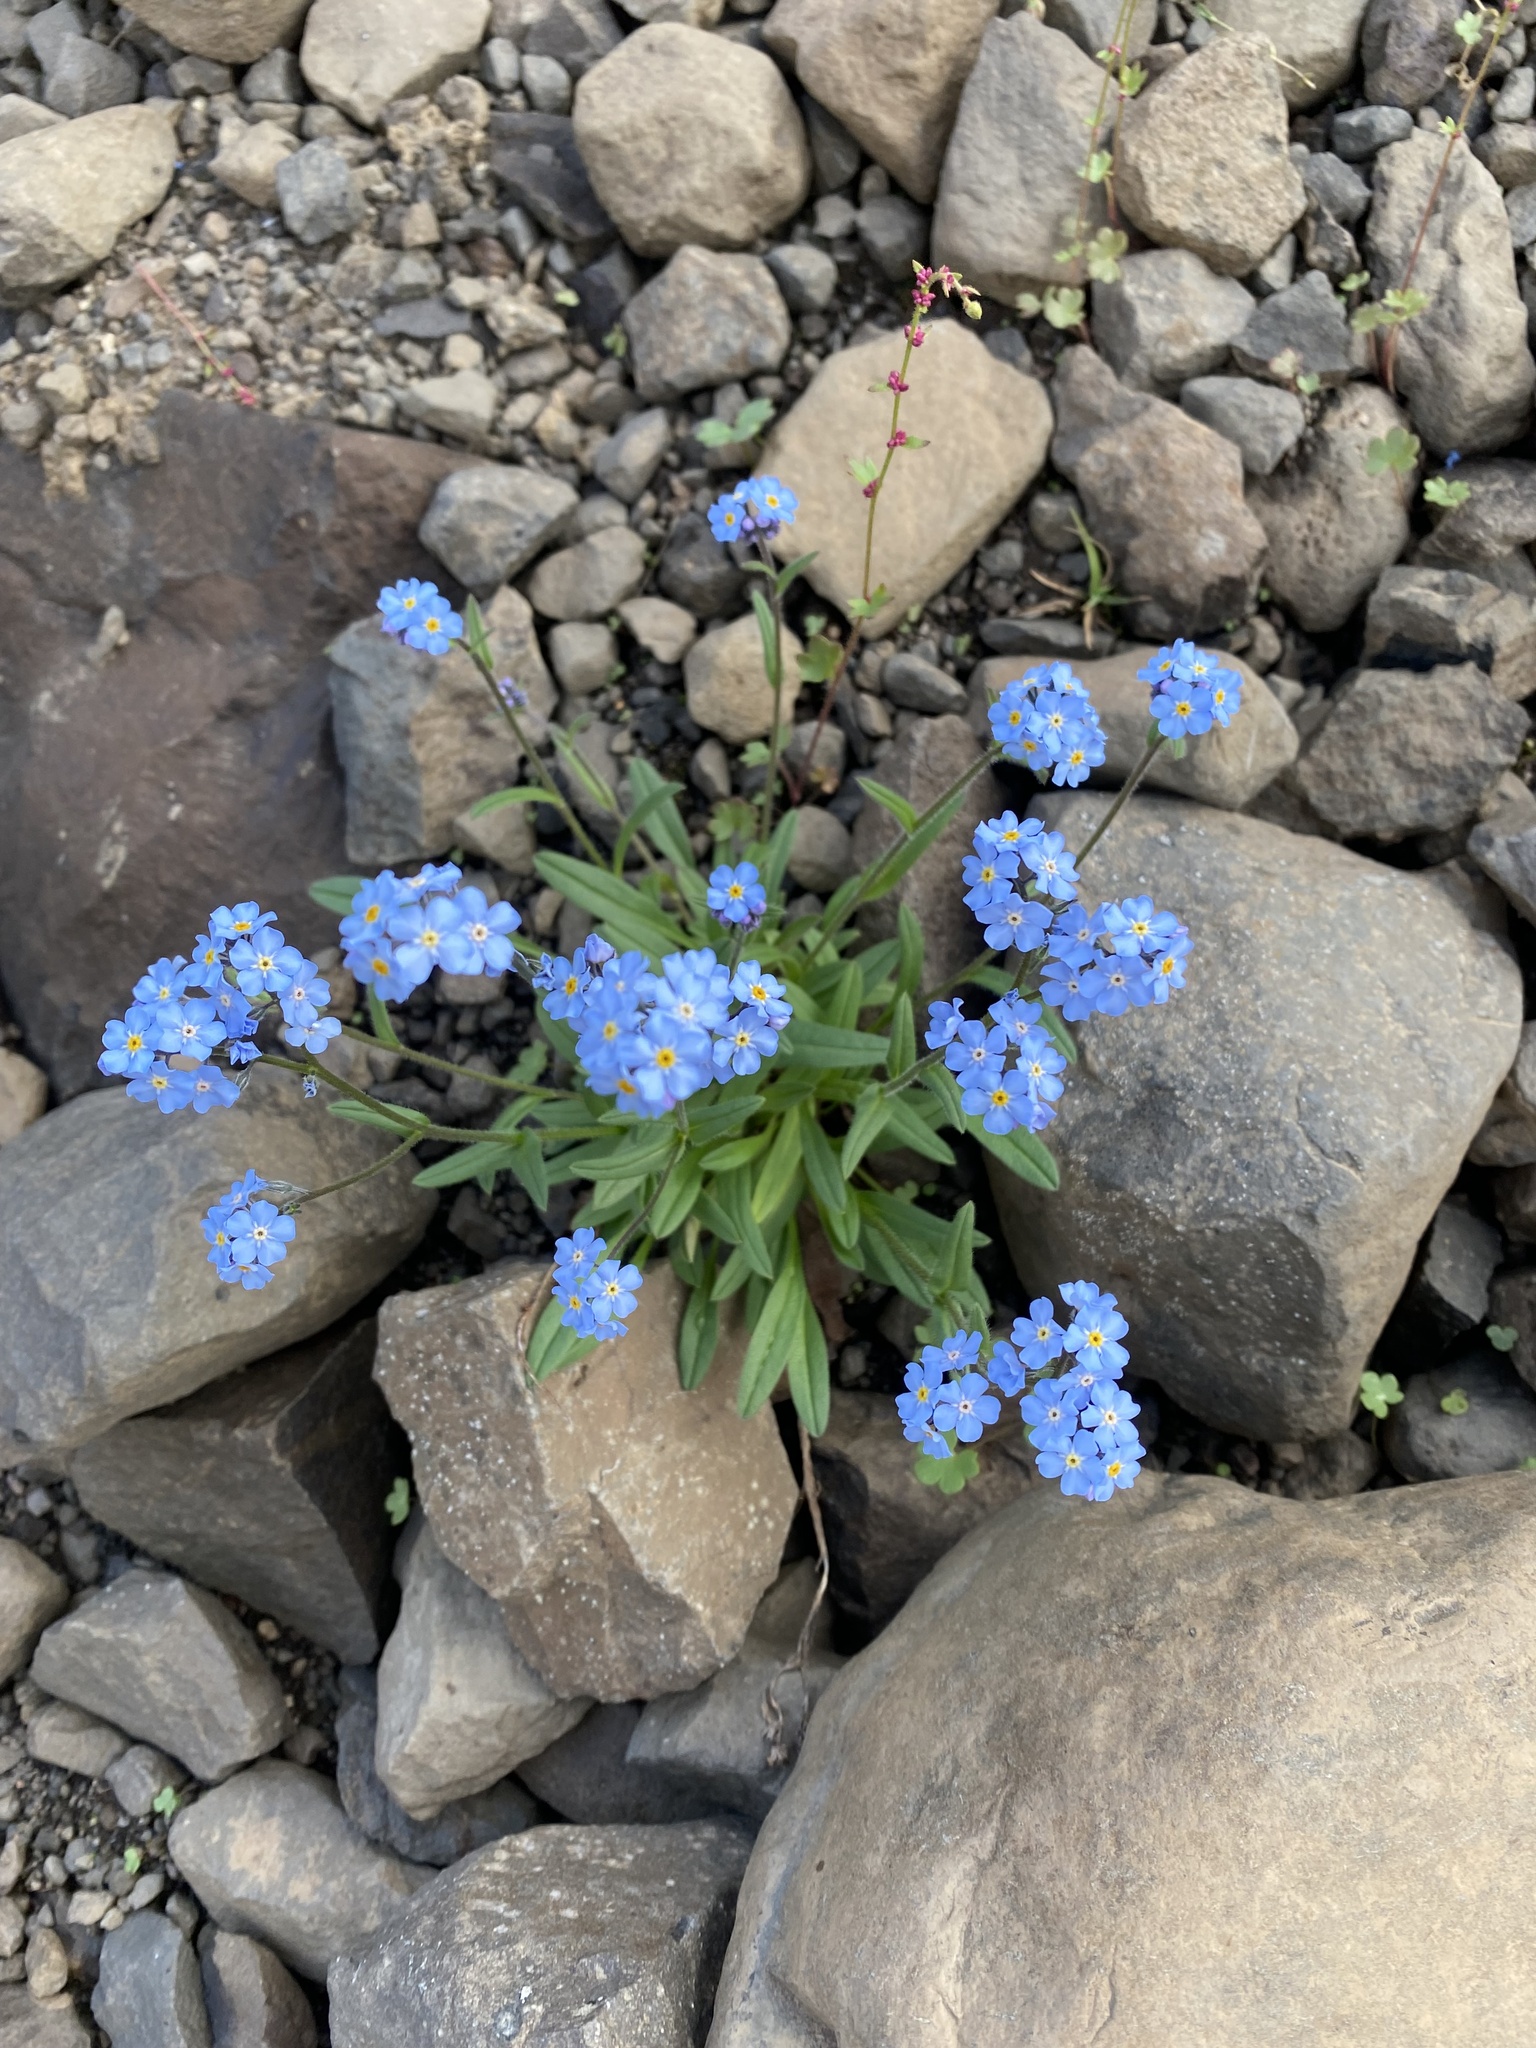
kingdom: Plantae
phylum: Tracheophyta
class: Magnoliopsida
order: Boraginales
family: Boraginaceae
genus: Myosotis
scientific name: Myosotis asiatica
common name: Asian forget-me-not
